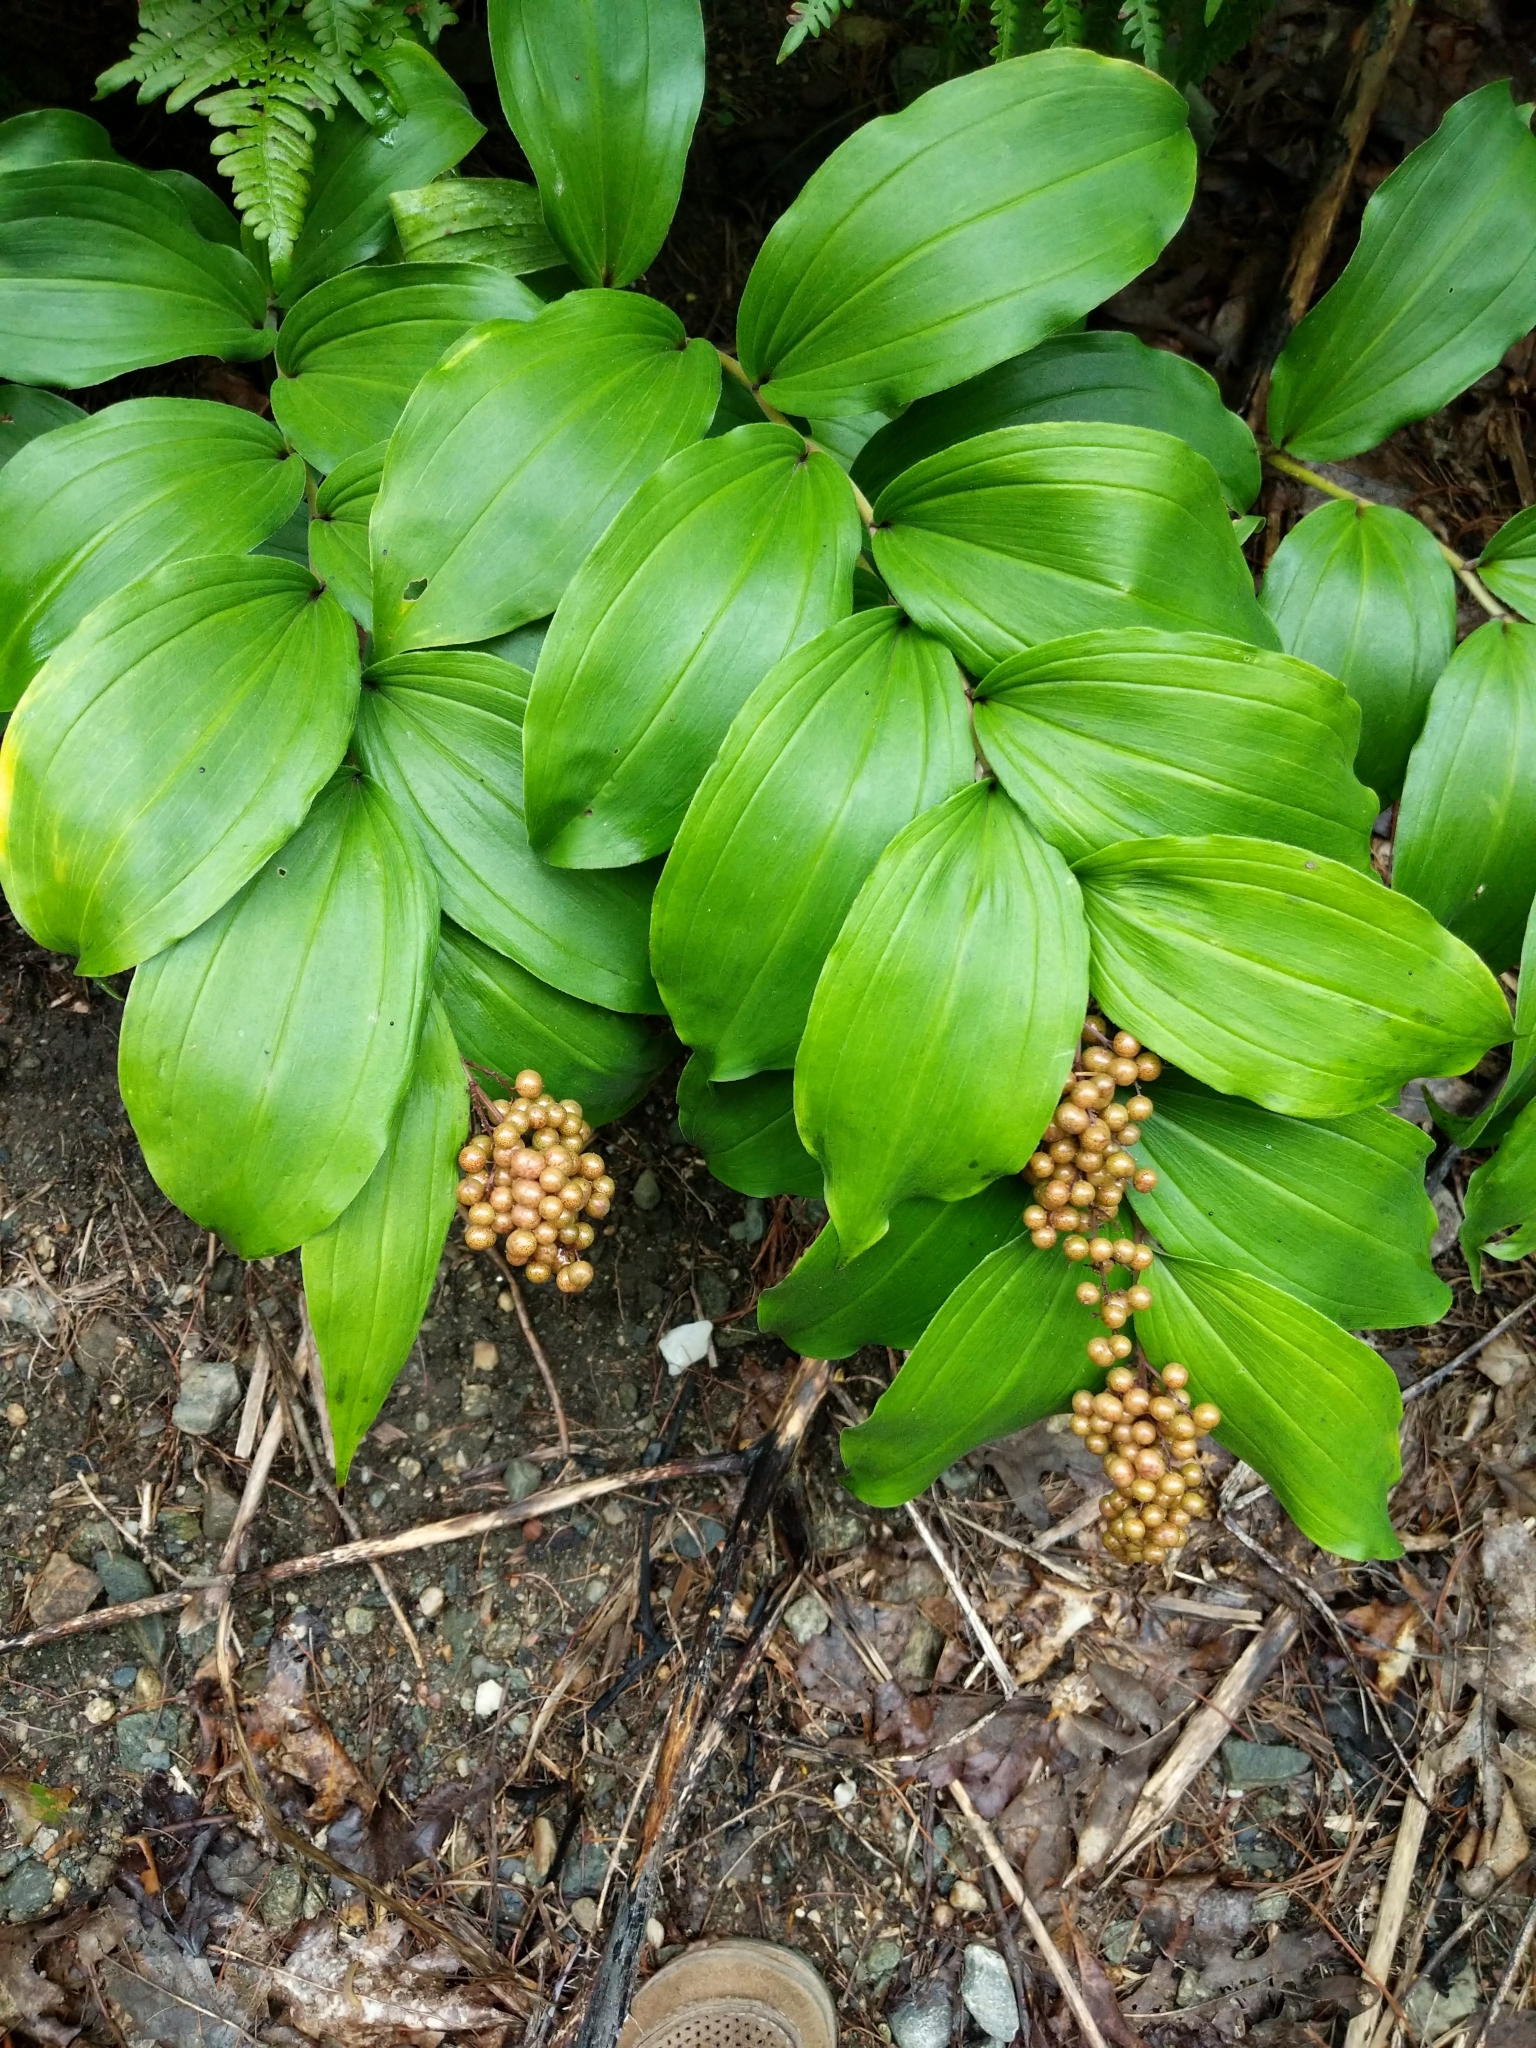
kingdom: Plantae
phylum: Tracheophyta
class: Liliopsida
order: Asparagales
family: Asparagaceae
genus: Maianthemum
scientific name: Maianthemum racemosum
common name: False spikenard
